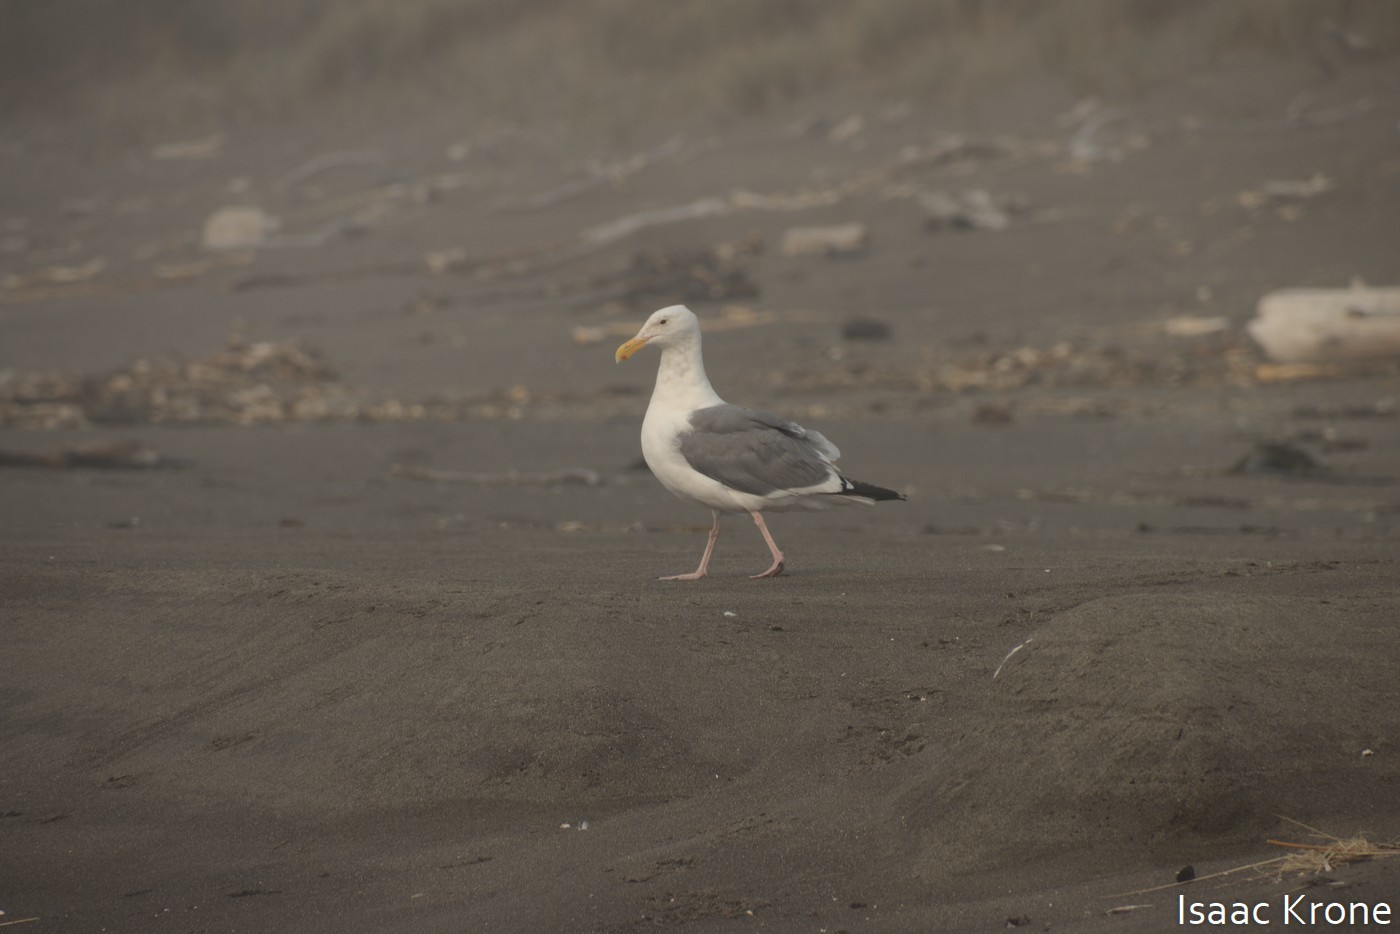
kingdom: Animalia
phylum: Chordata
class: Aves
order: Charadriiformes
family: Laridae
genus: Larus
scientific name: Larus occidentalis
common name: Western gull
